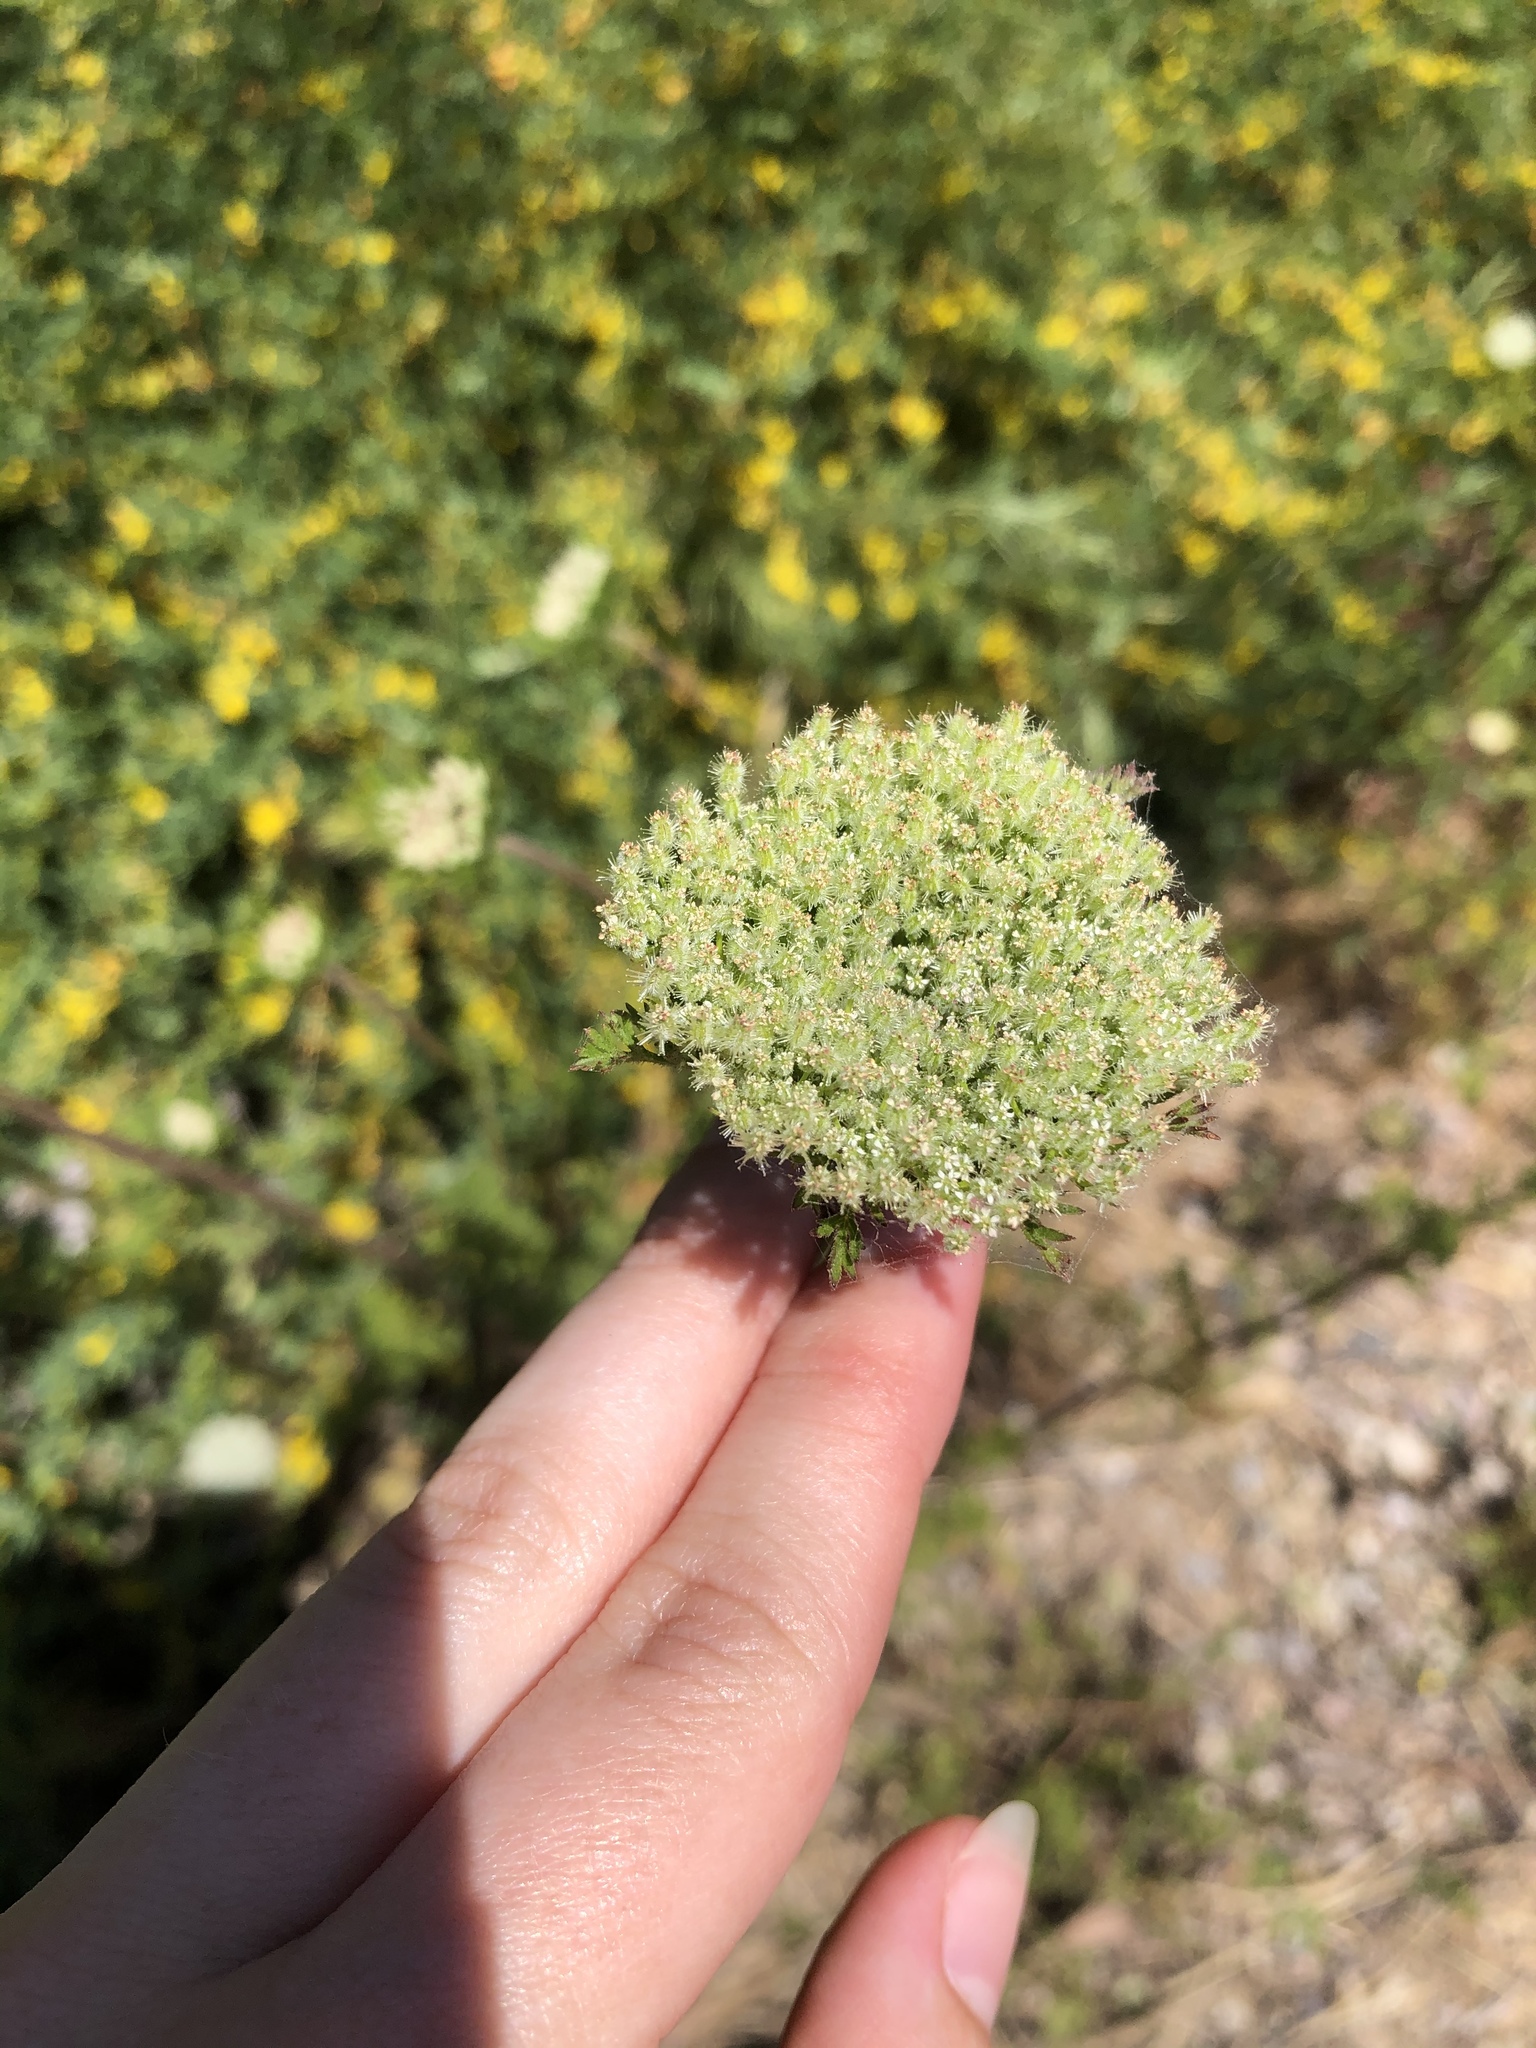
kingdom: Plantae
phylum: Tracheophyta
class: Magnoliopsida
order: Apiales
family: Apiaceae
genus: Daucus
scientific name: Daucus pusillus
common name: Southwest wild carrot
